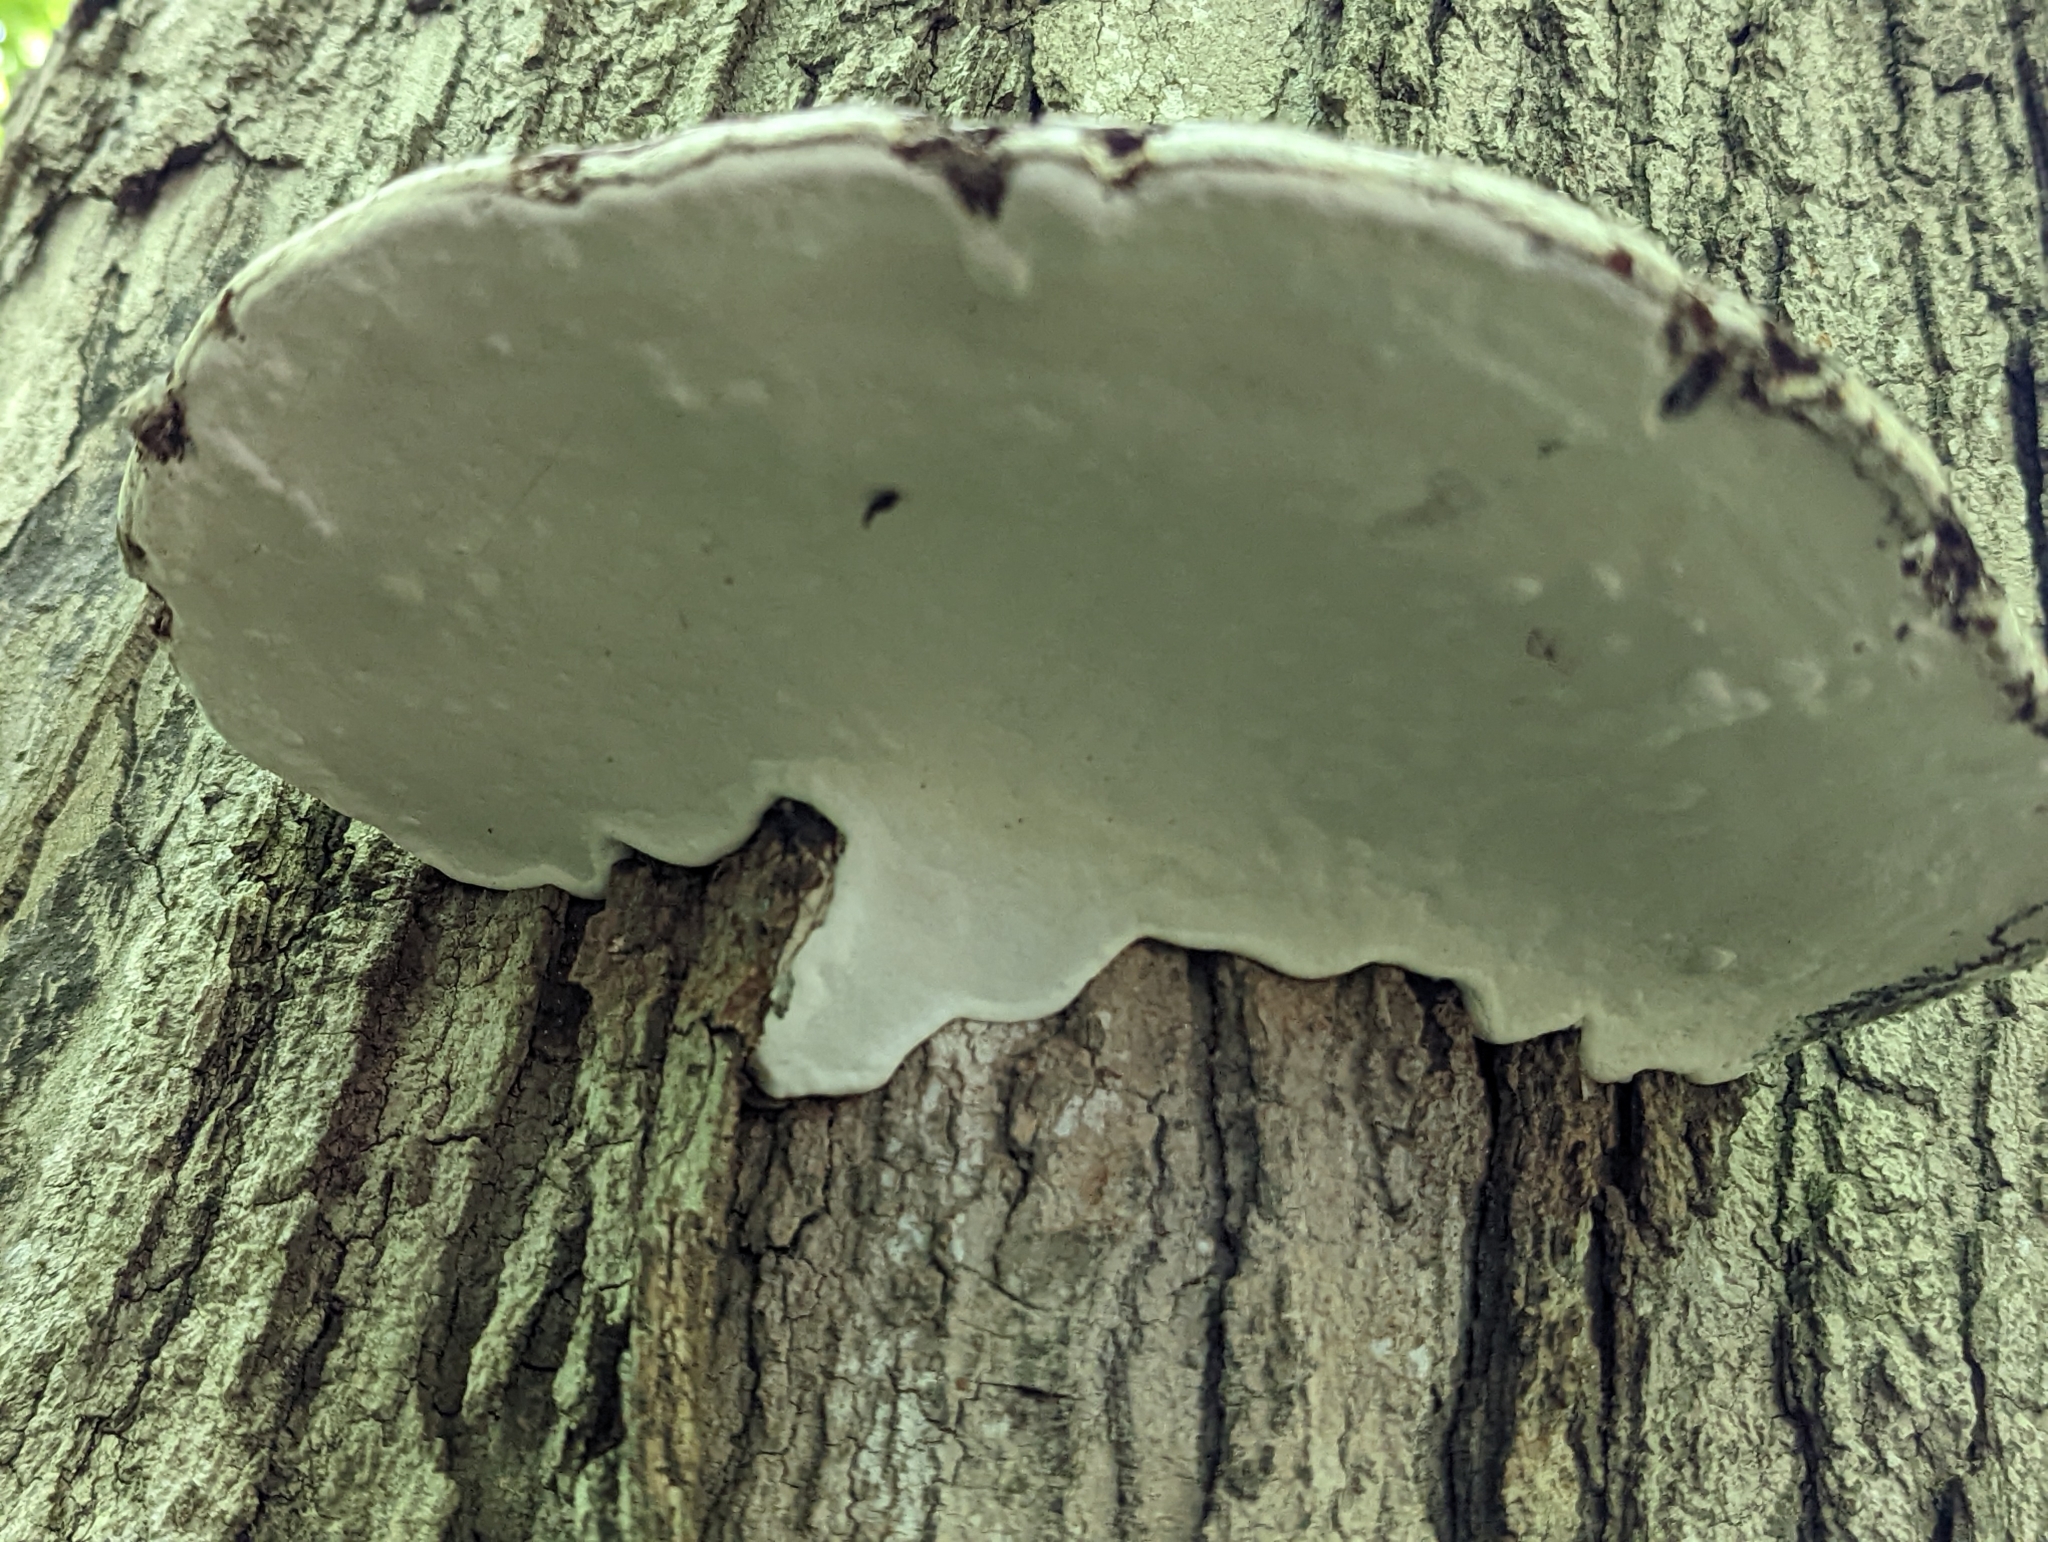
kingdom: Fungi
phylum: Basidiomycota
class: Agaricomycetes
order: Polyporales
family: Polyporaceae
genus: Ganoderma
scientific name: Ganoderma applanatum
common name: Artist's bracket
